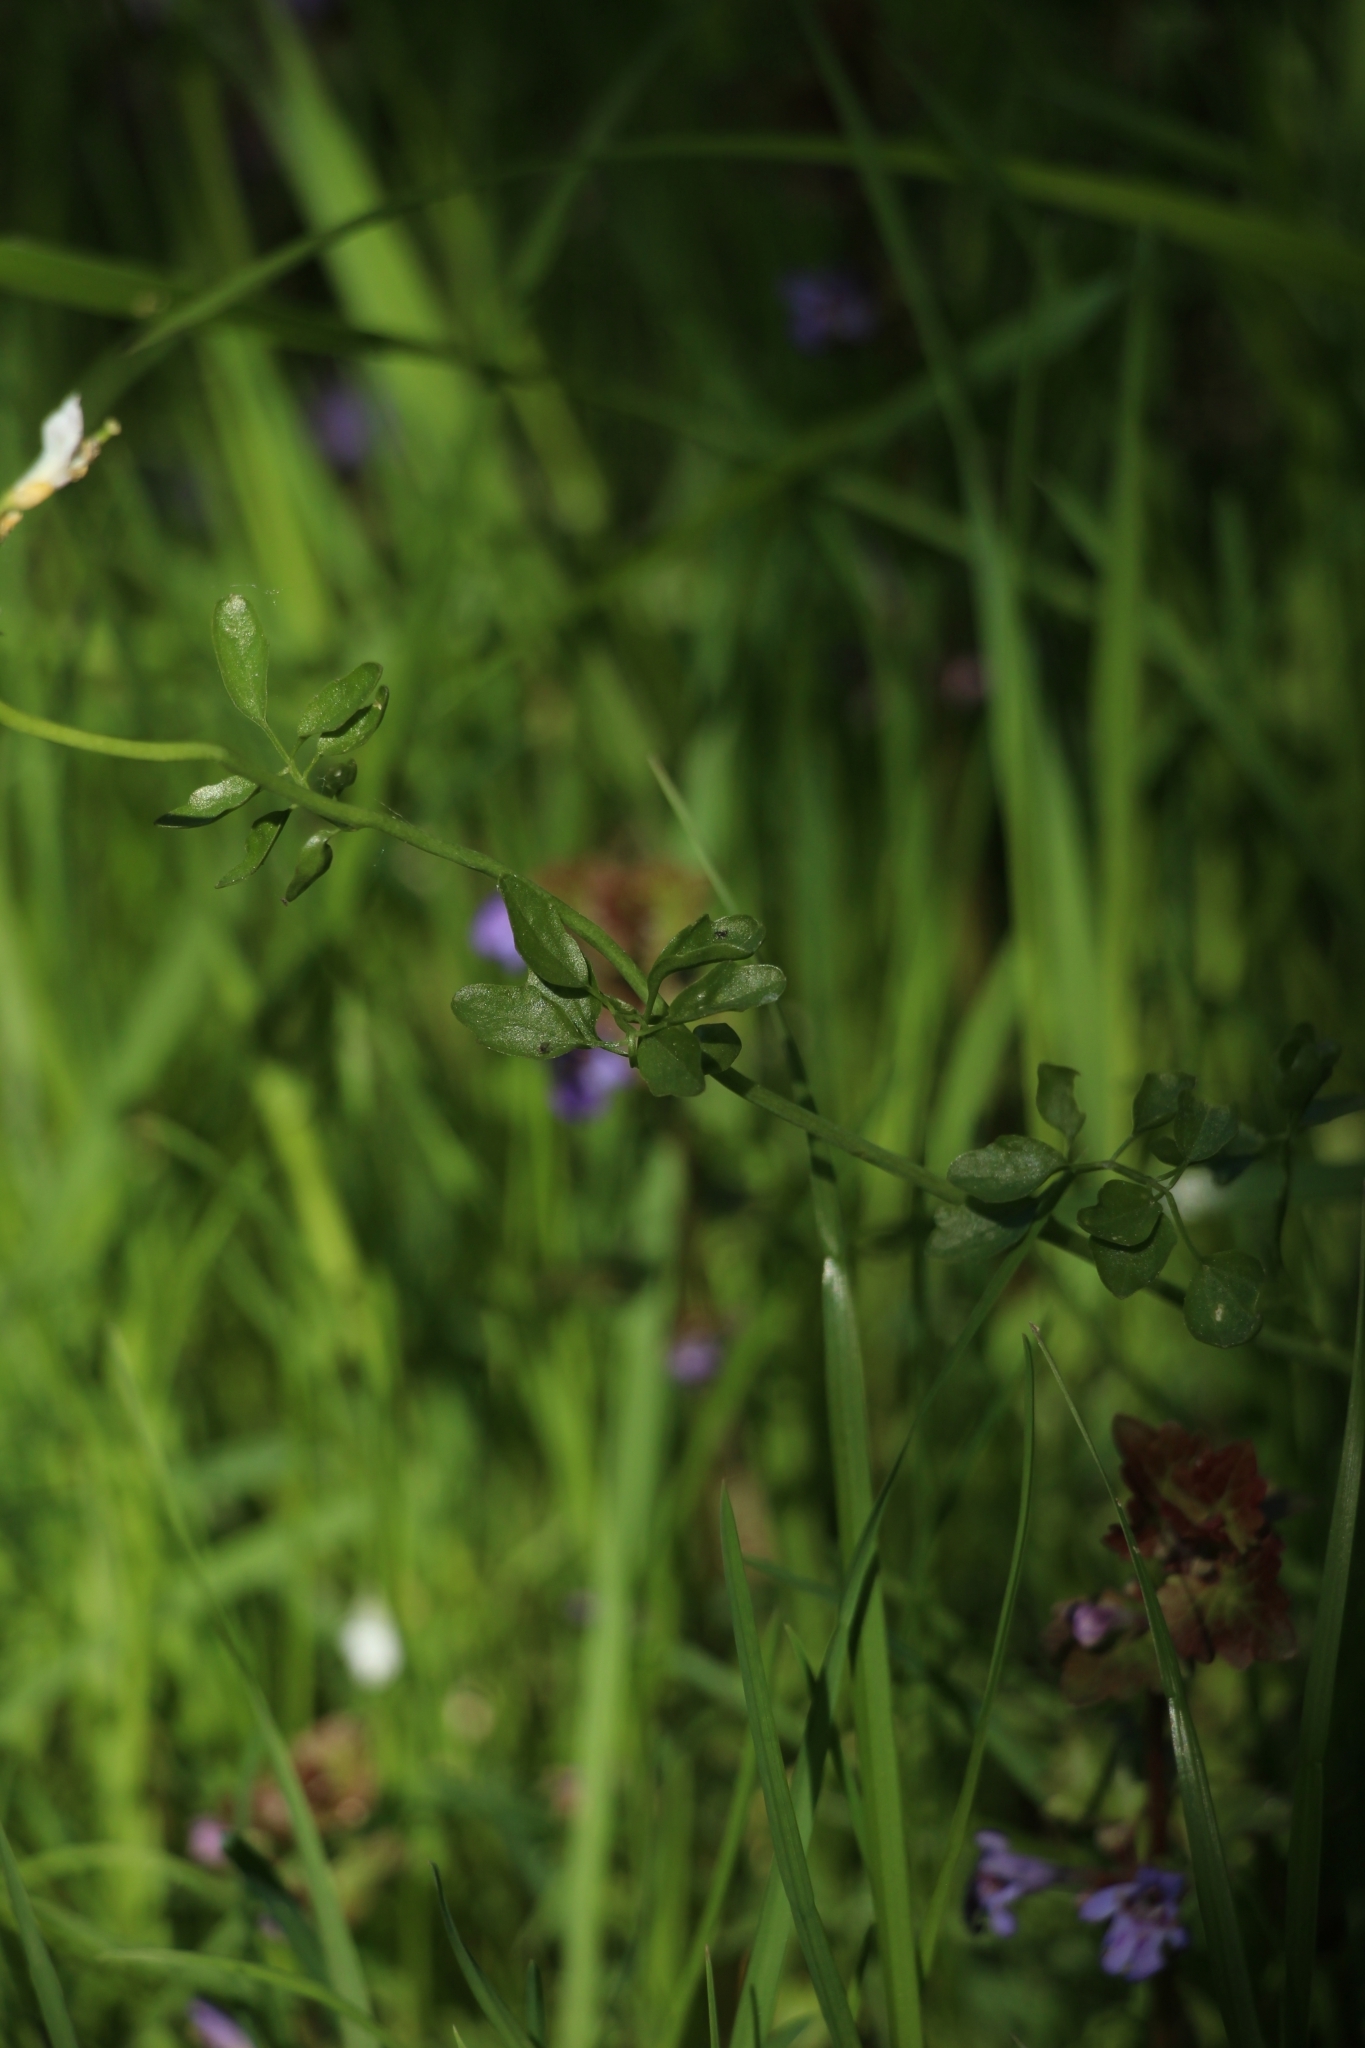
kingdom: Plantae
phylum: Tracheophyta
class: Magnoliopsida
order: Brassicales
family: Brassicaceae
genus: Cardamine
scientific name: Cardamine dentata
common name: Toothed bittercress
